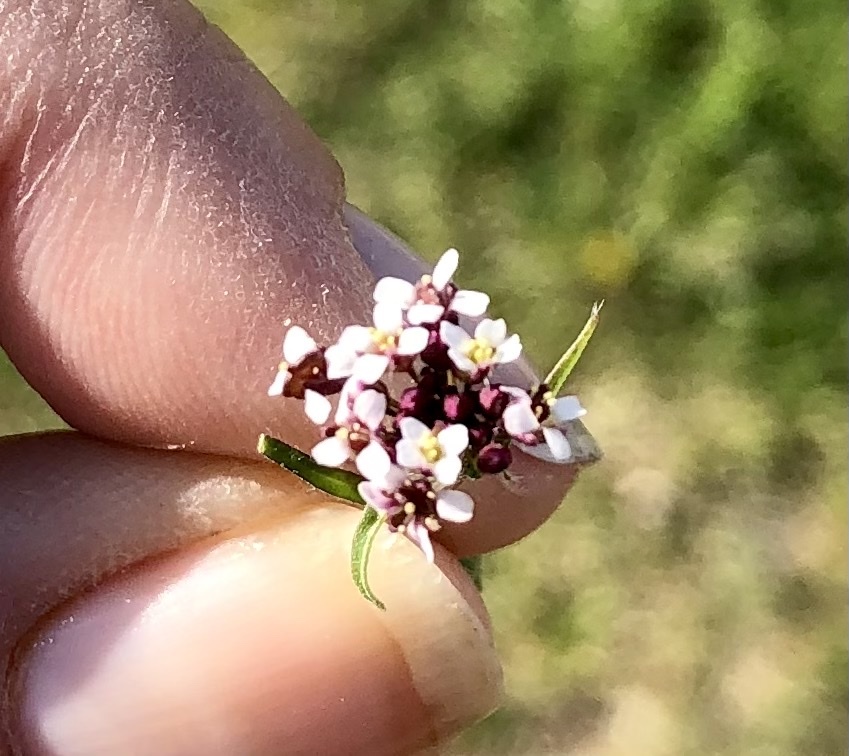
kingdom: Plantae
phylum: Tracheophyta
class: Magnoliopsida
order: Lamiales
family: Verbenaceae
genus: Phyla
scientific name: Phyla nodiflora
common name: Frogfruit
